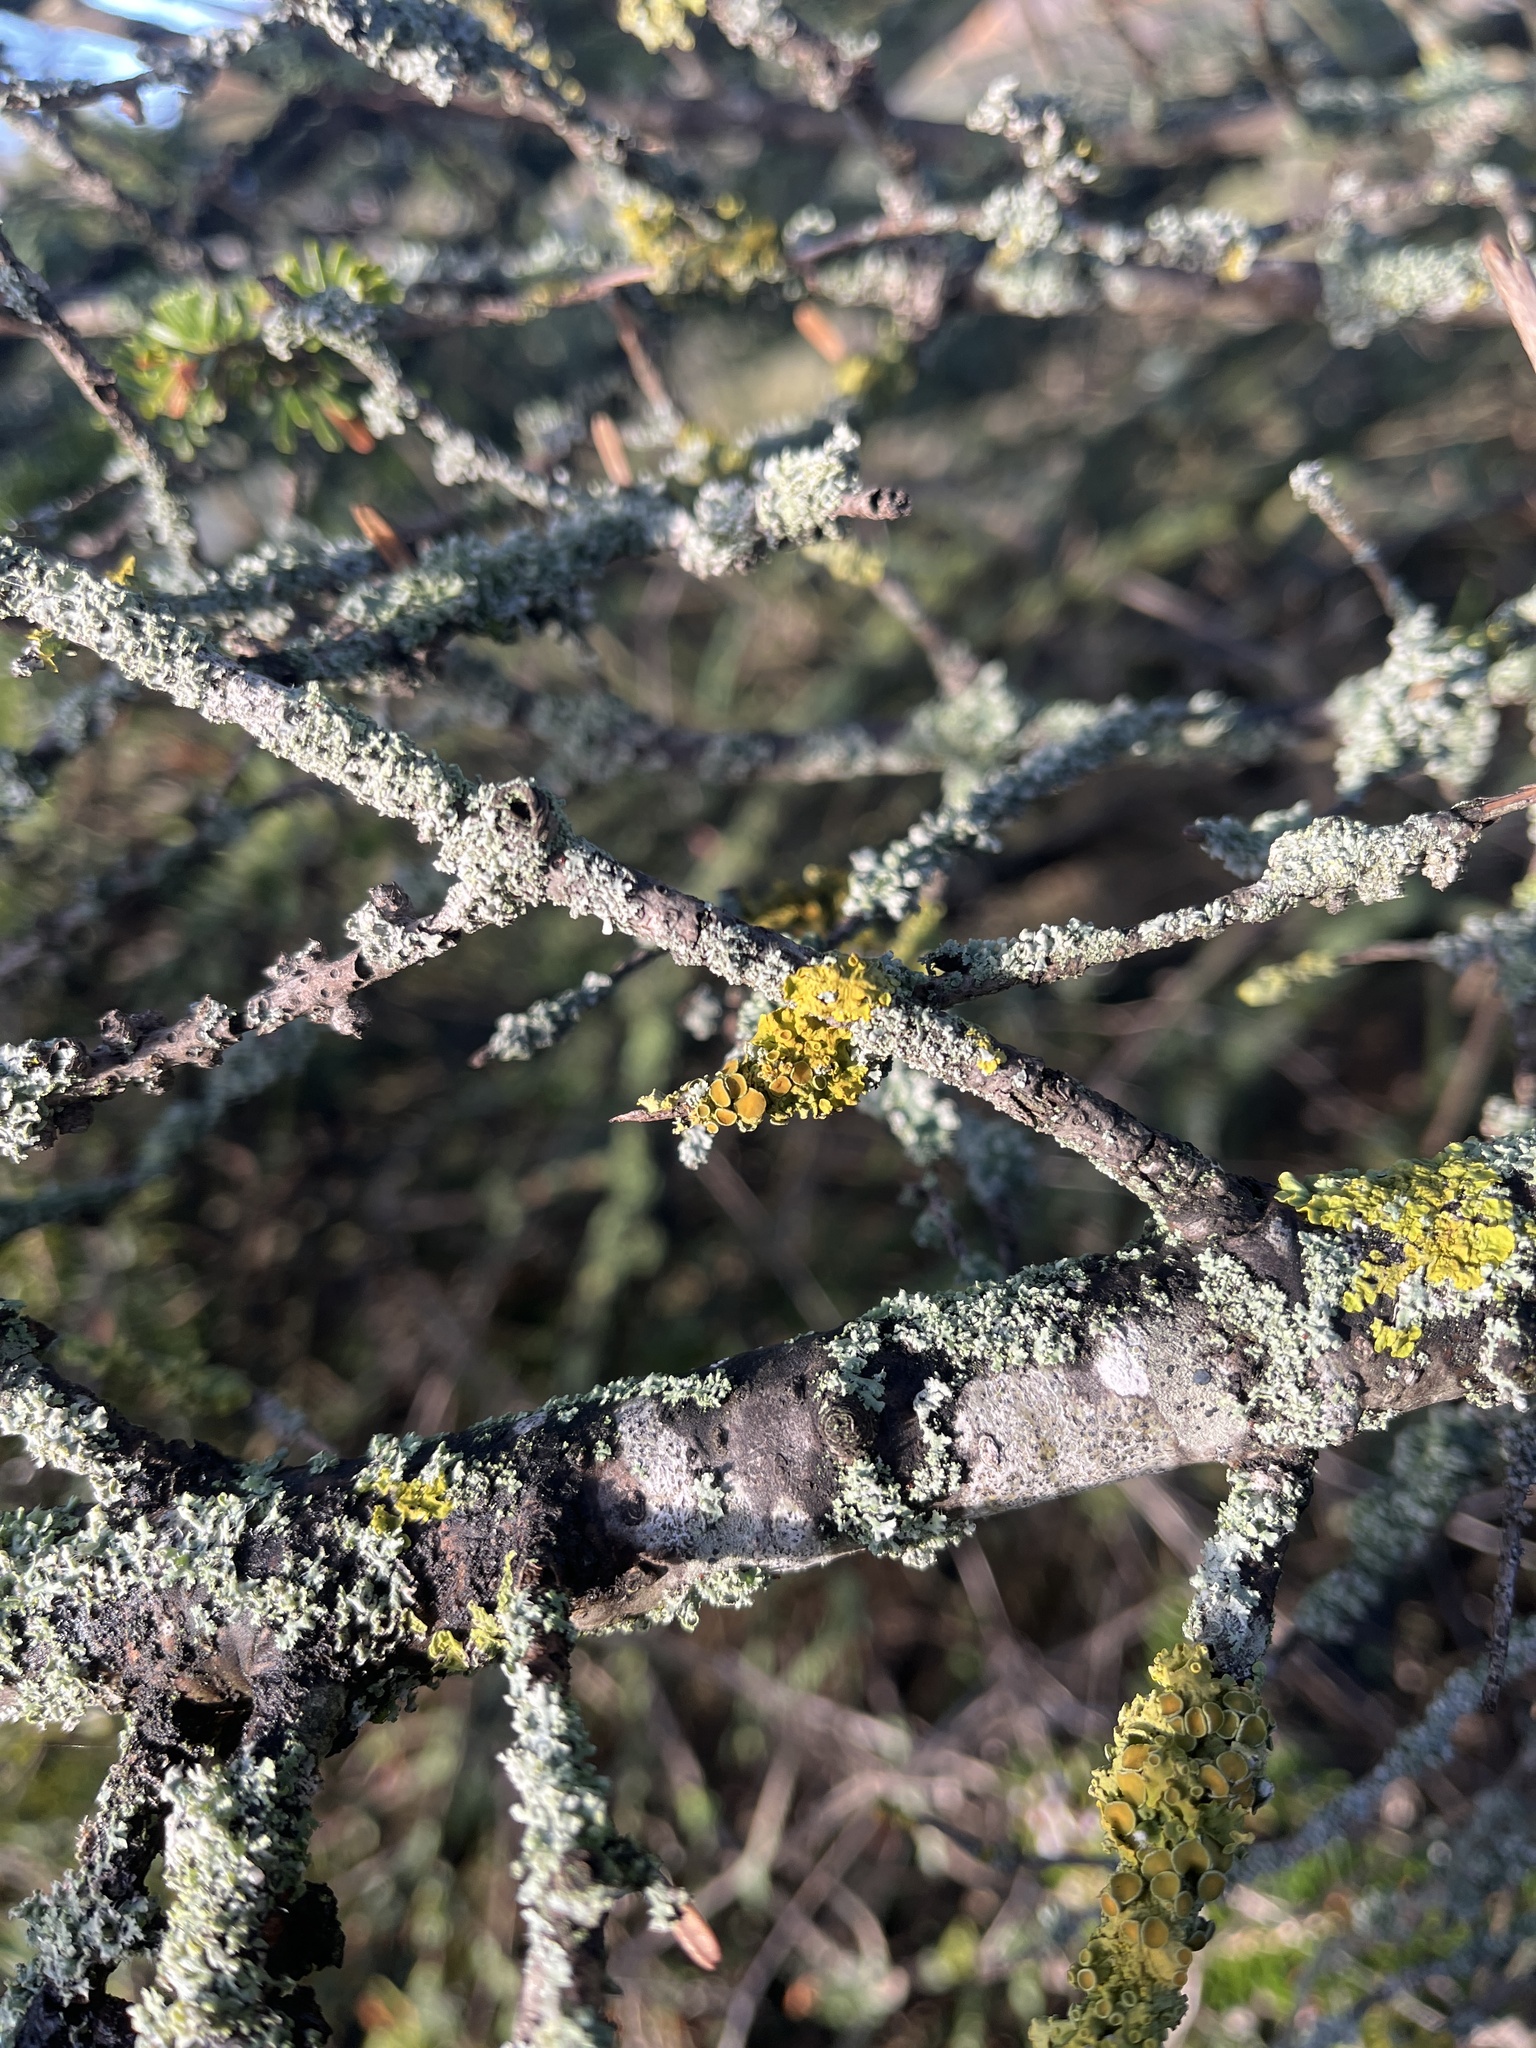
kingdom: Fungi
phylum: Ascomycota
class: Lecanoromycetes
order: Teloschistales
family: Teloschistaceae
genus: Xanthoria
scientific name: Xanthoria parietina
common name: Common orange lichen
